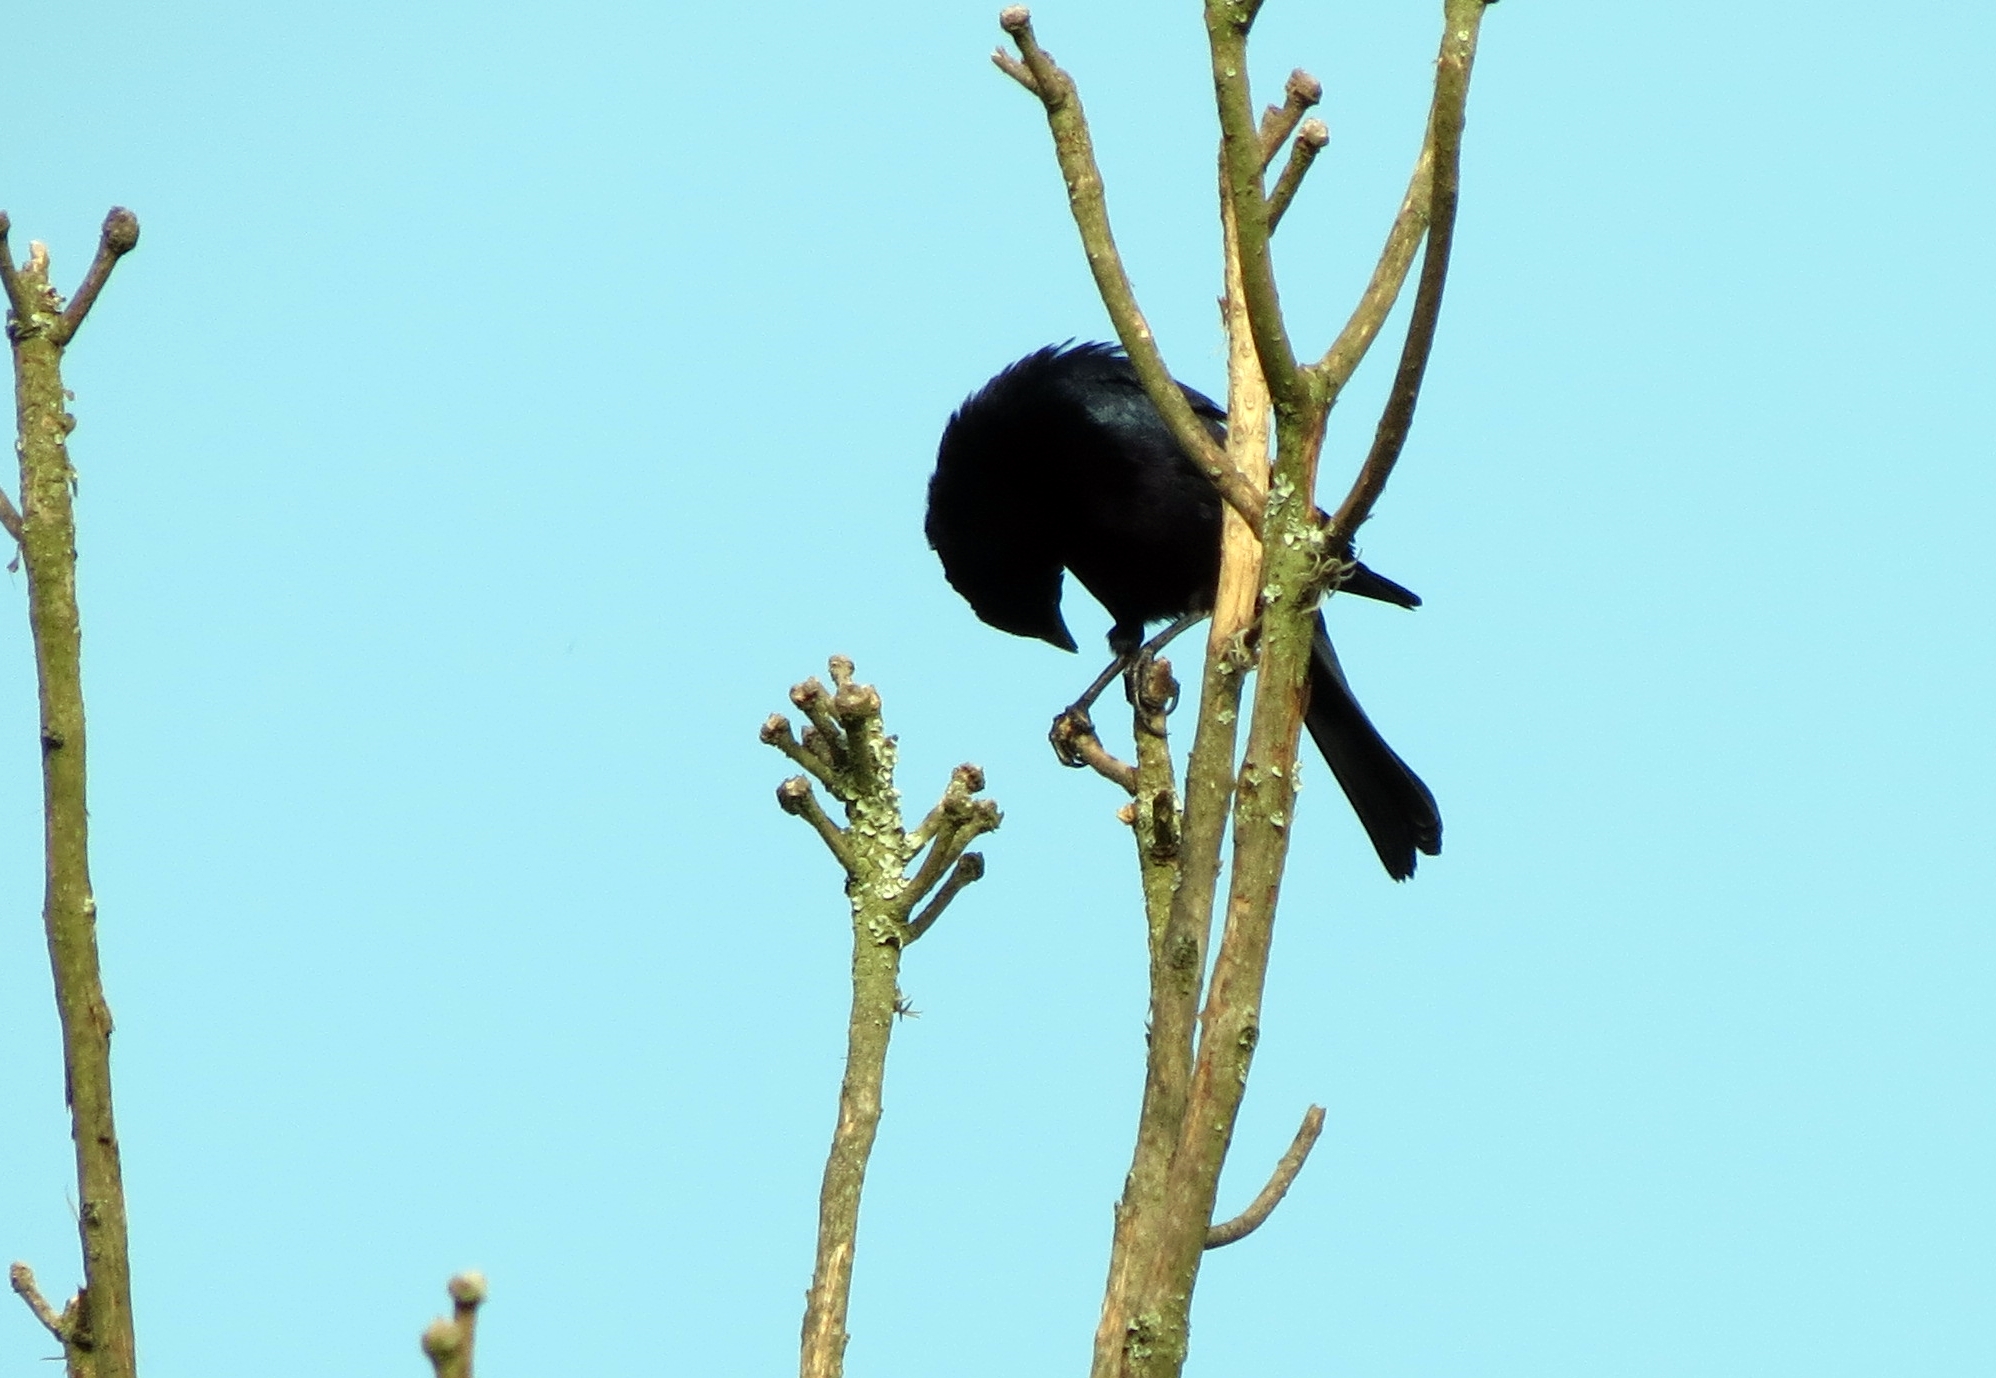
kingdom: Animalia
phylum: Chordata
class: Aves
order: Passeriformes
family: Icteridae
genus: Molothrus
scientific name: Molothrus bonariensis
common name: Shiny cowbird
